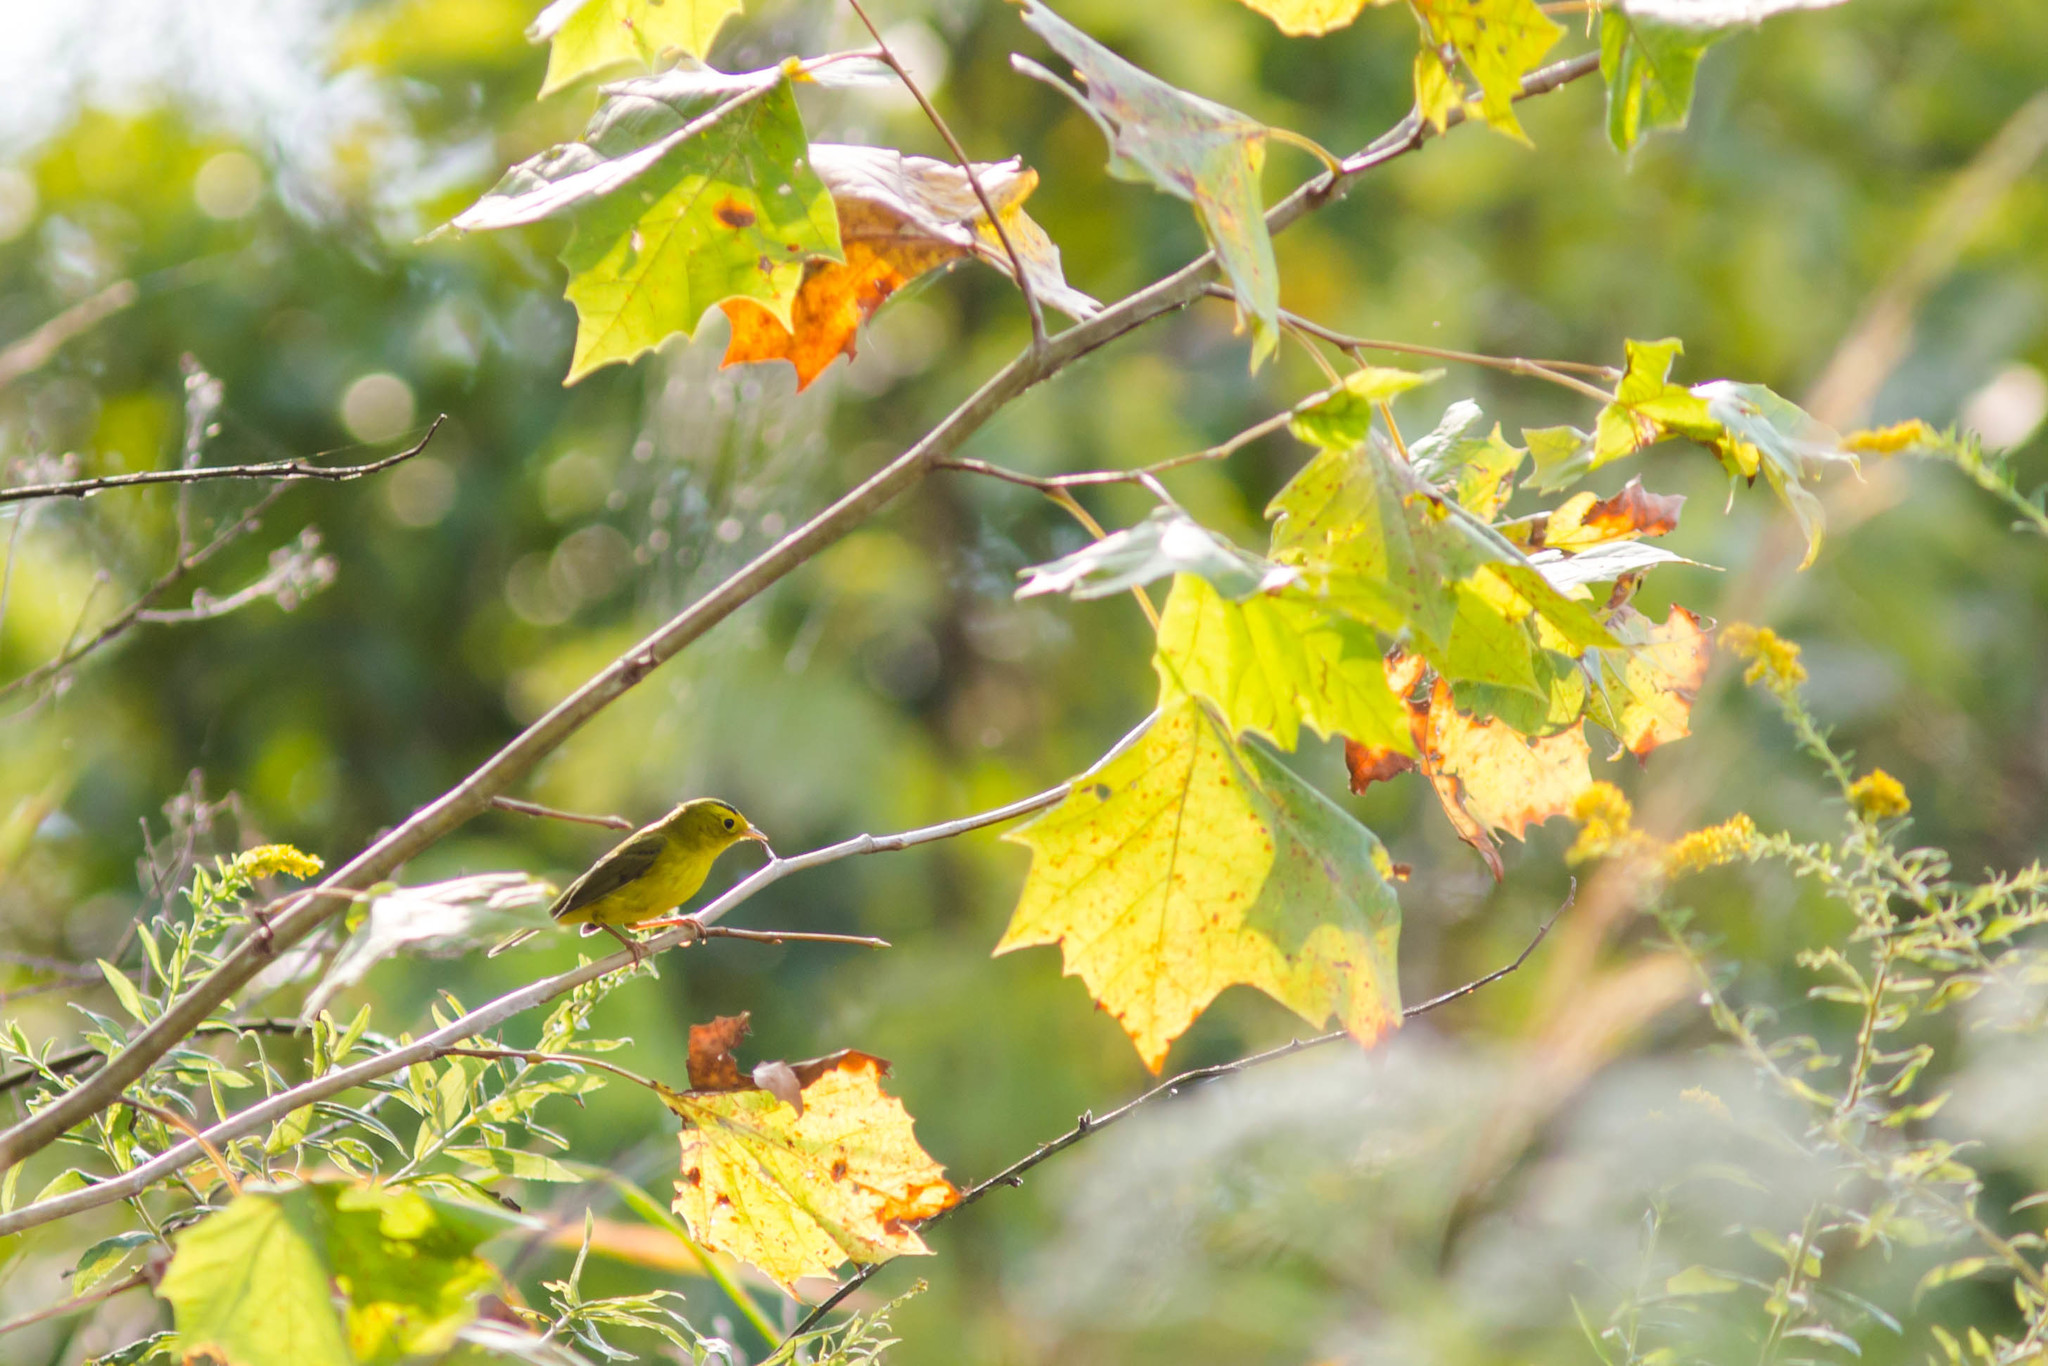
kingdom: Animalia
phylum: Chordata
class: Aves
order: Passeriformes
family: Parulidae
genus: Cardellina
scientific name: Cardellina pusilla
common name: Wilson's warbler
